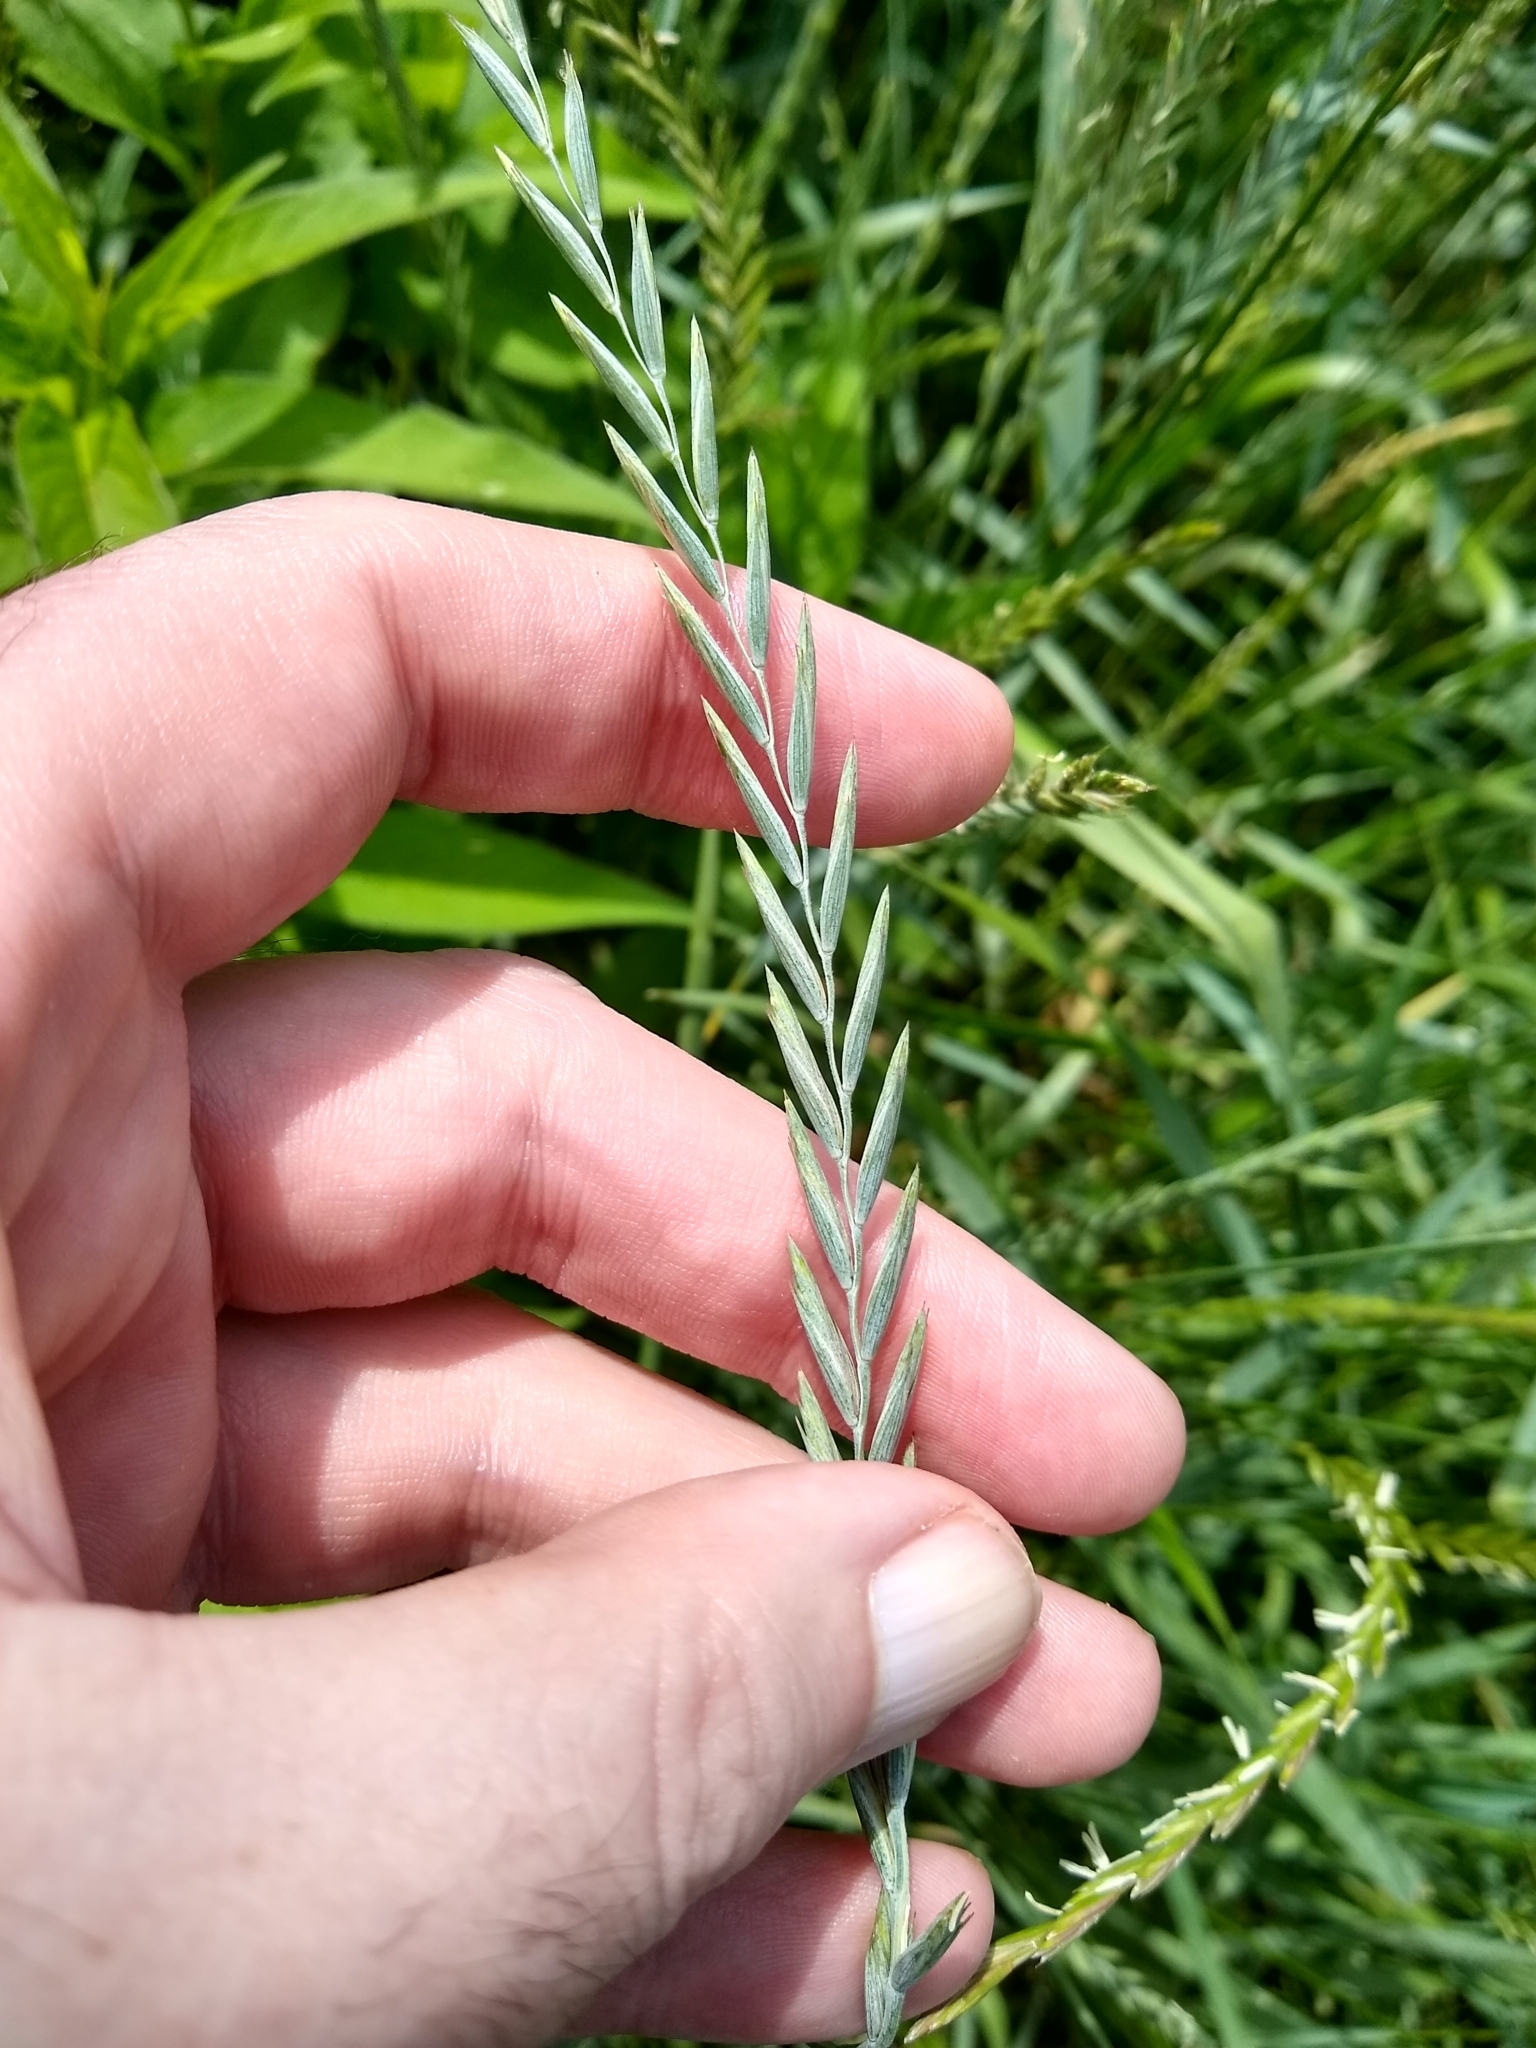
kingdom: Plantae
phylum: Tracheophyta
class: Liliopsida
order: Poales
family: Poaceae
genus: Elymus
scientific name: Elymus repens
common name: Quackgrass
